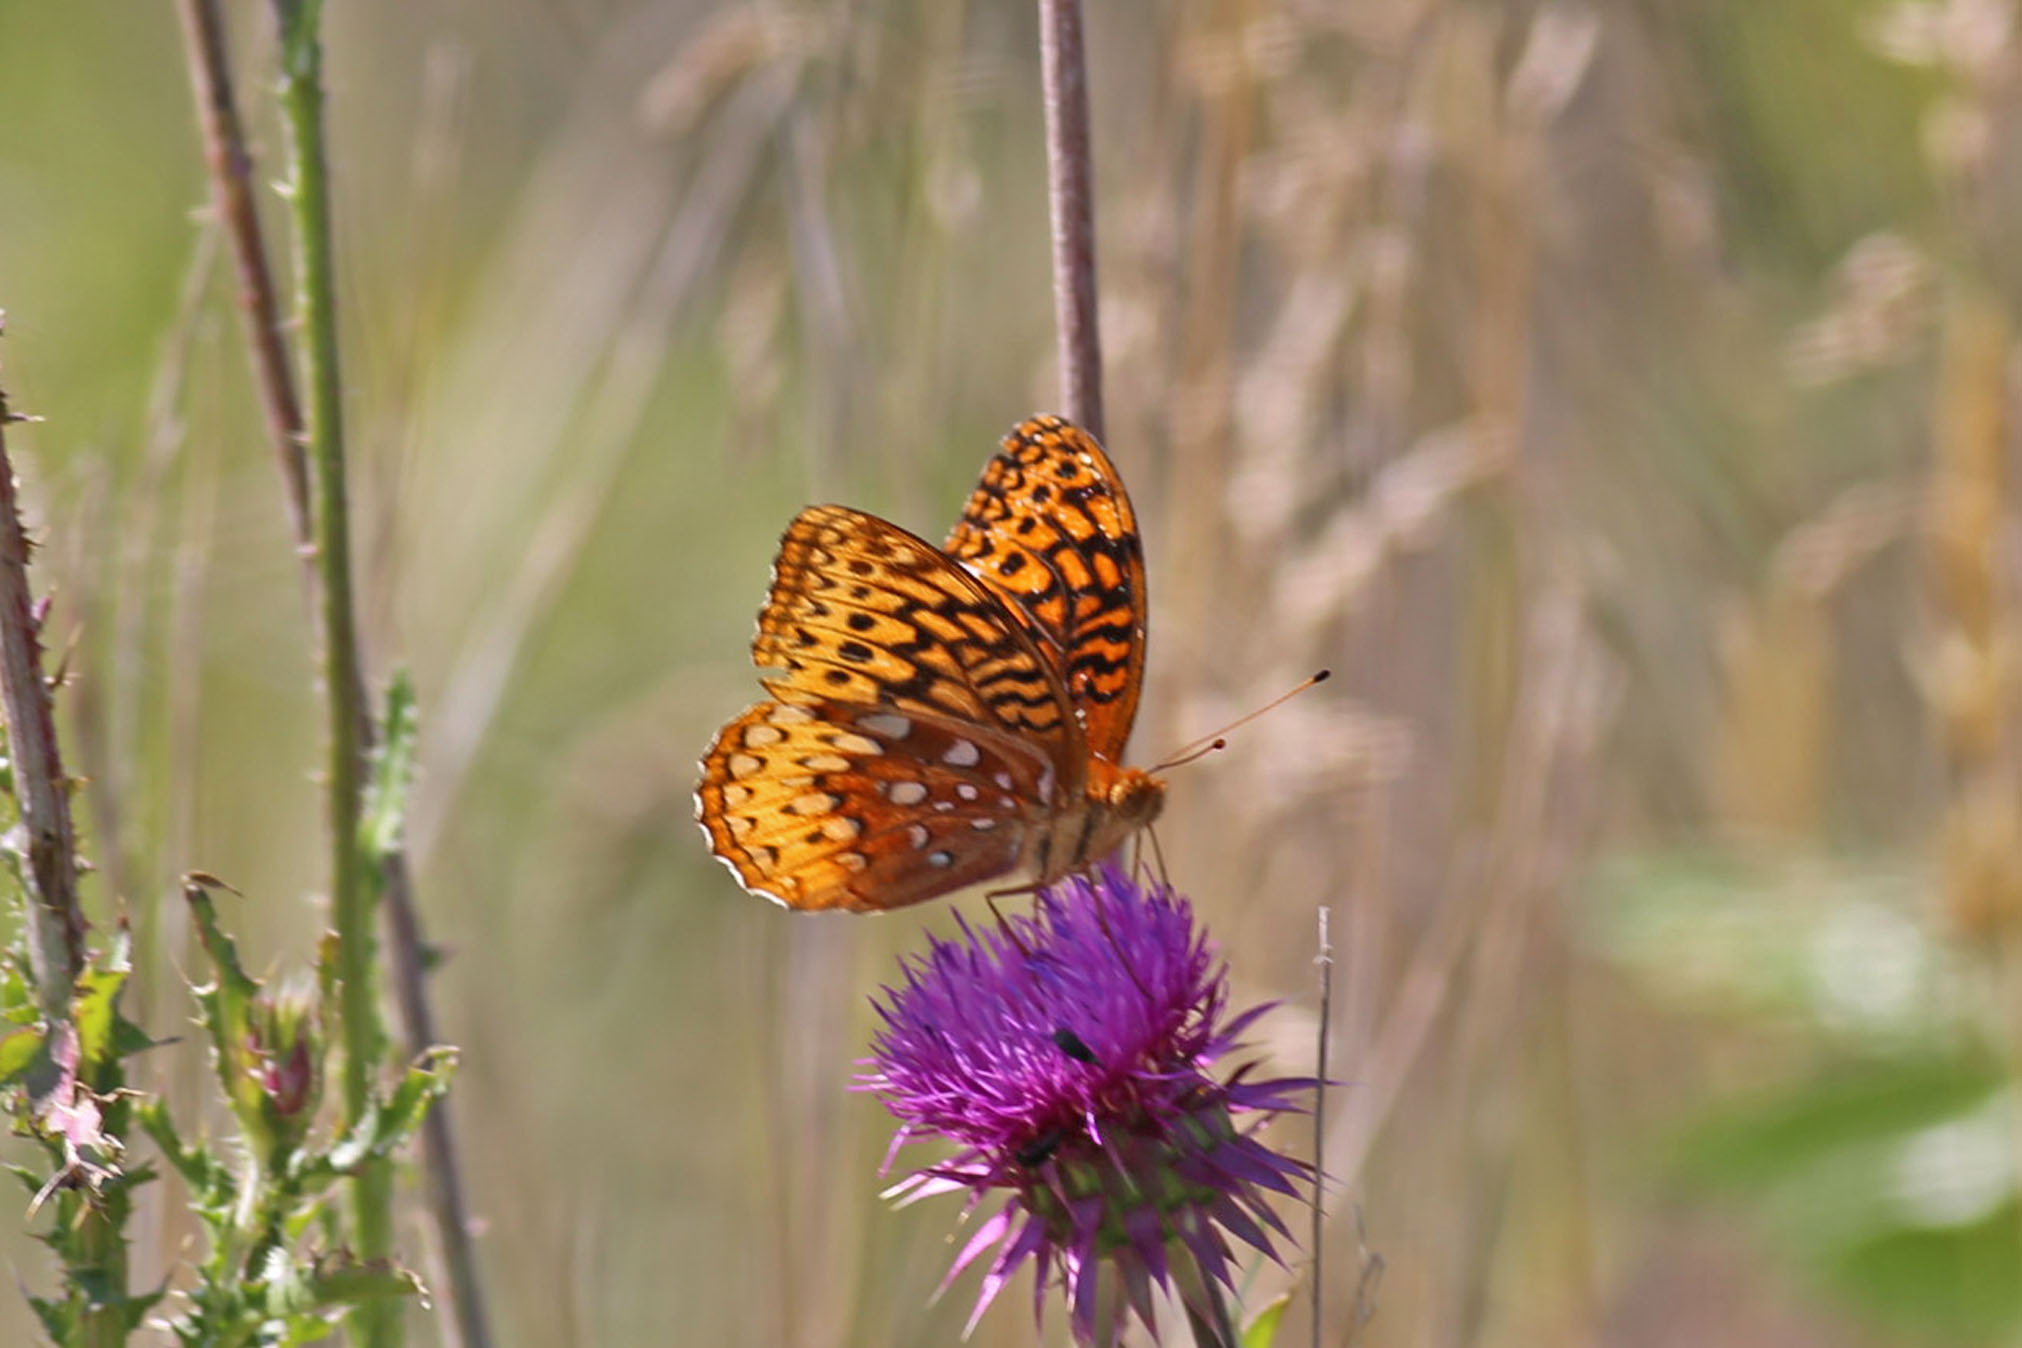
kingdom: Animalia
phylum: Arthropoda
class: Insecta
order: Lepidoptera
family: Nymphalidae
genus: Speyeria
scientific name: Speyeria cybele
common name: Great spangled fritillary
